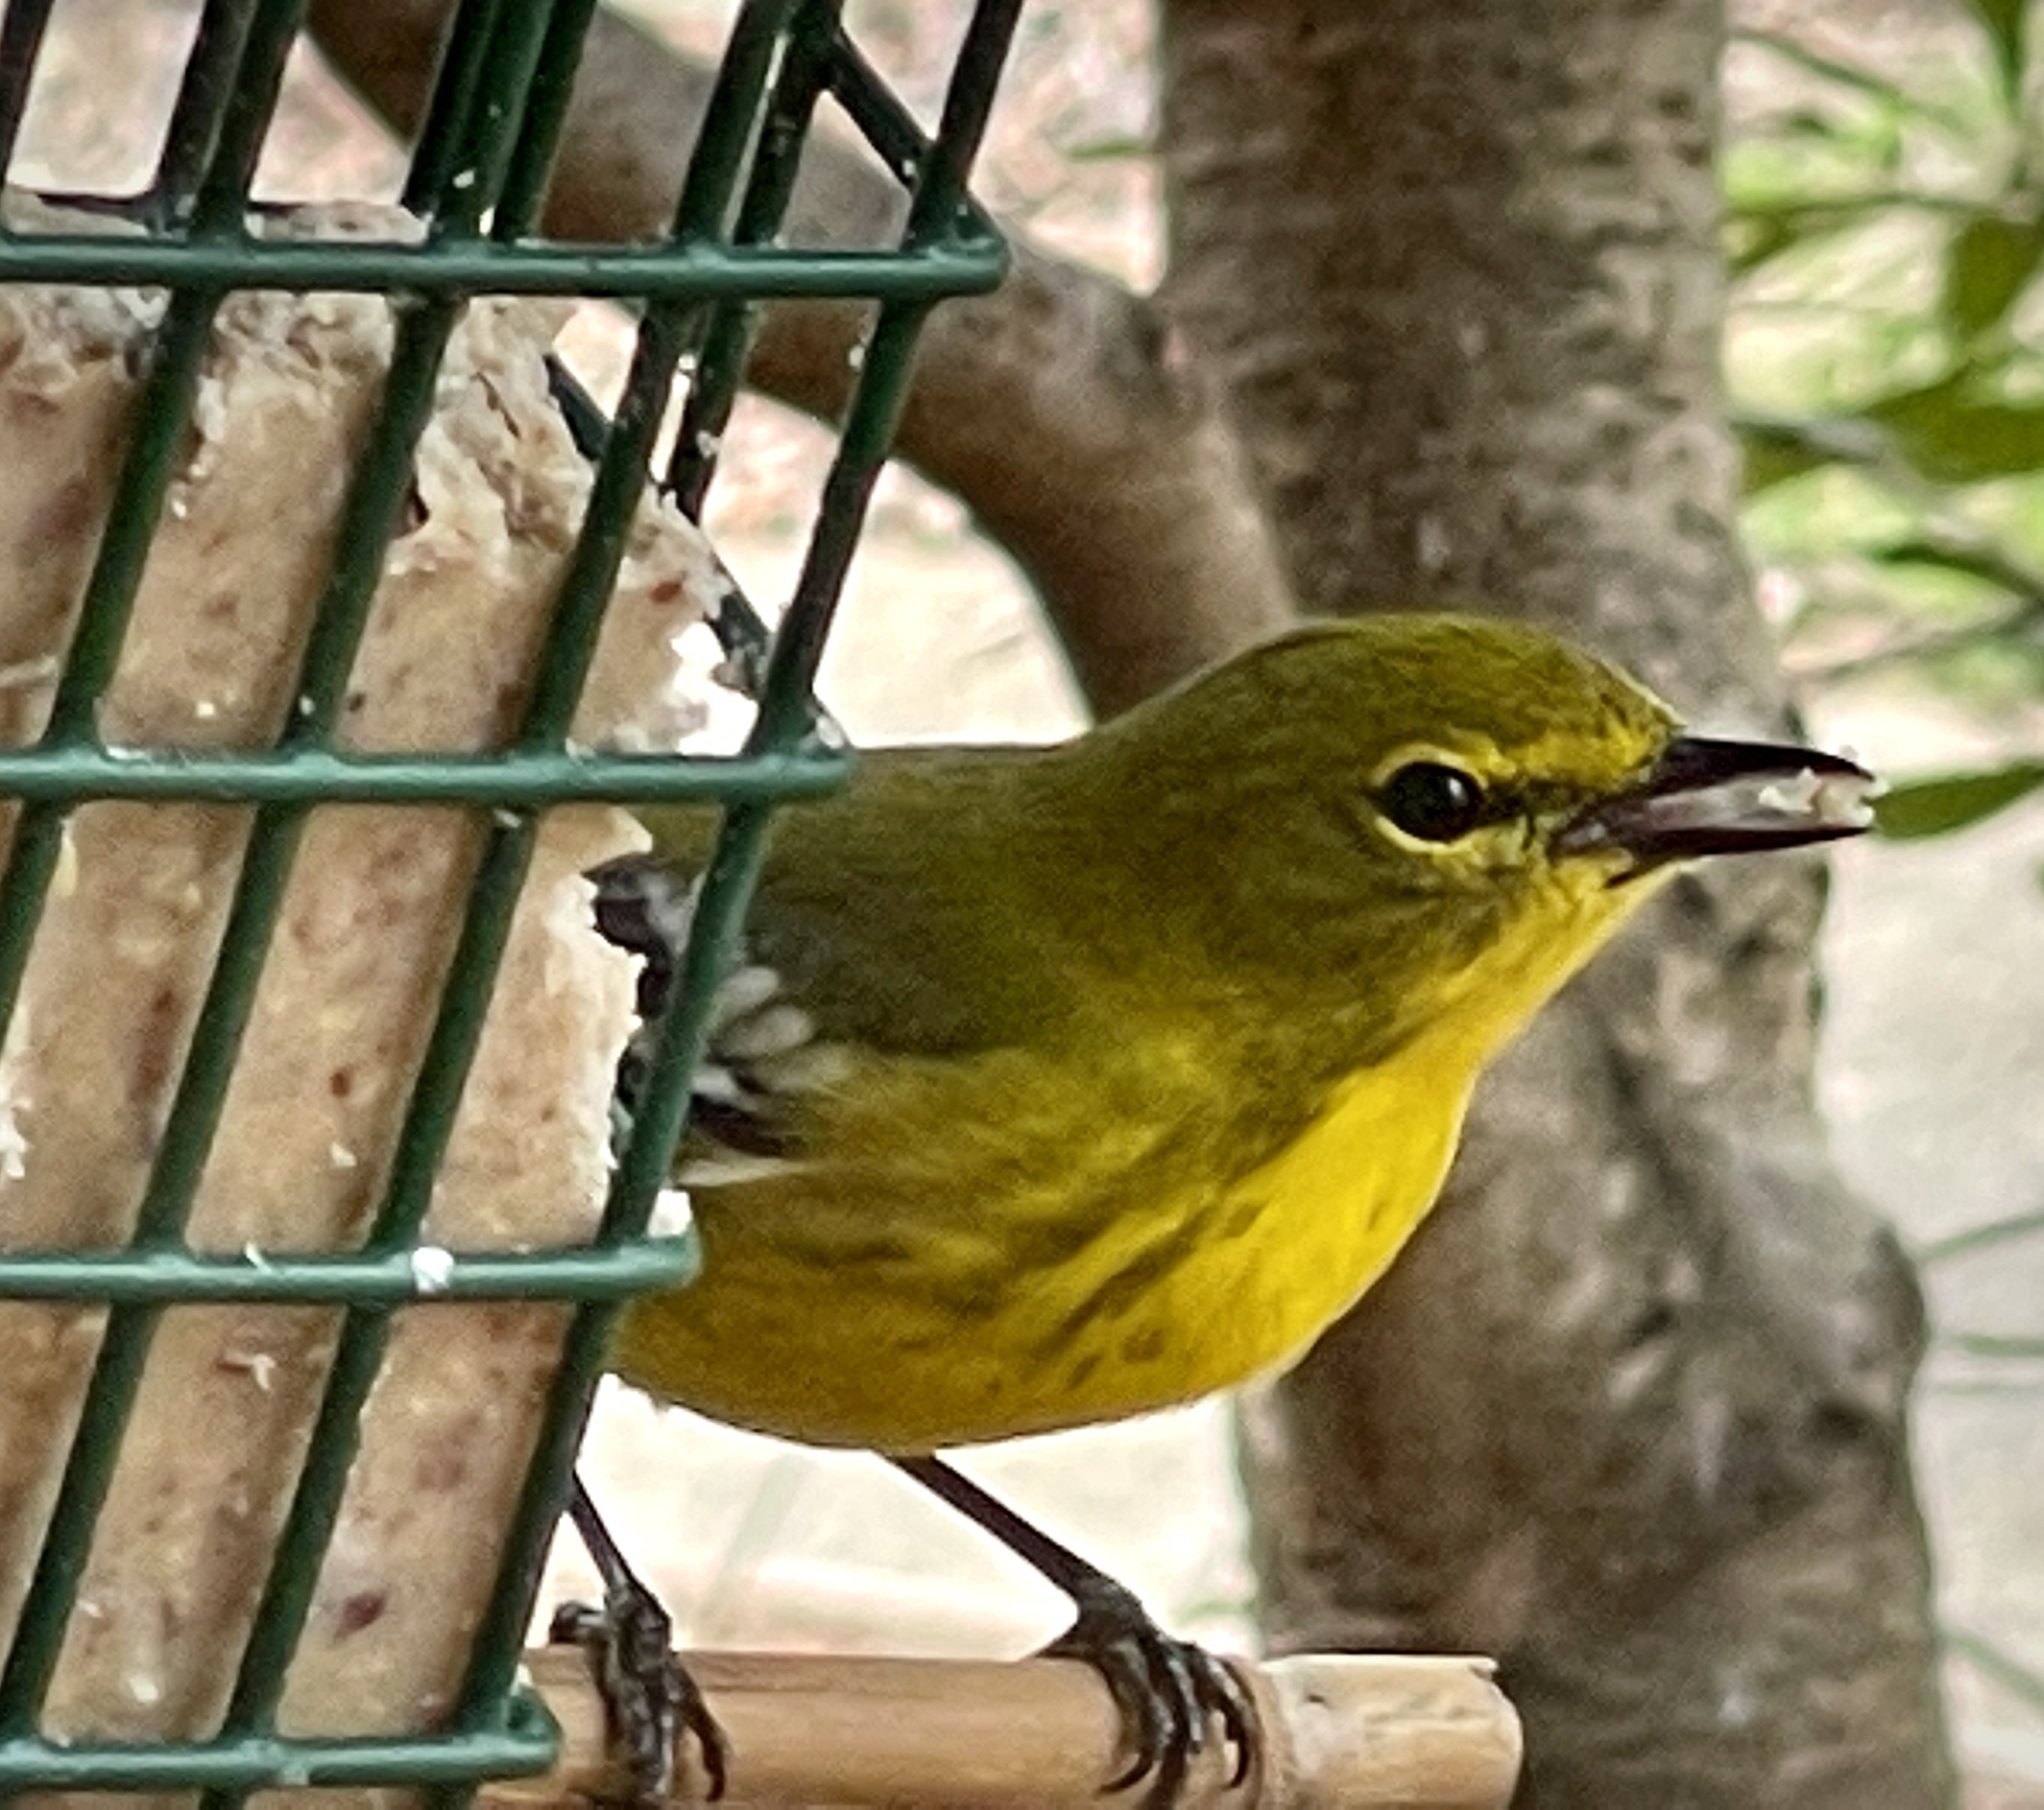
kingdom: Animalia
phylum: Chordata
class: Aves
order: Passeriformes
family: Parulidae
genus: Setophaga
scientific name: Setophaga pinus
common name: Pine warbler
